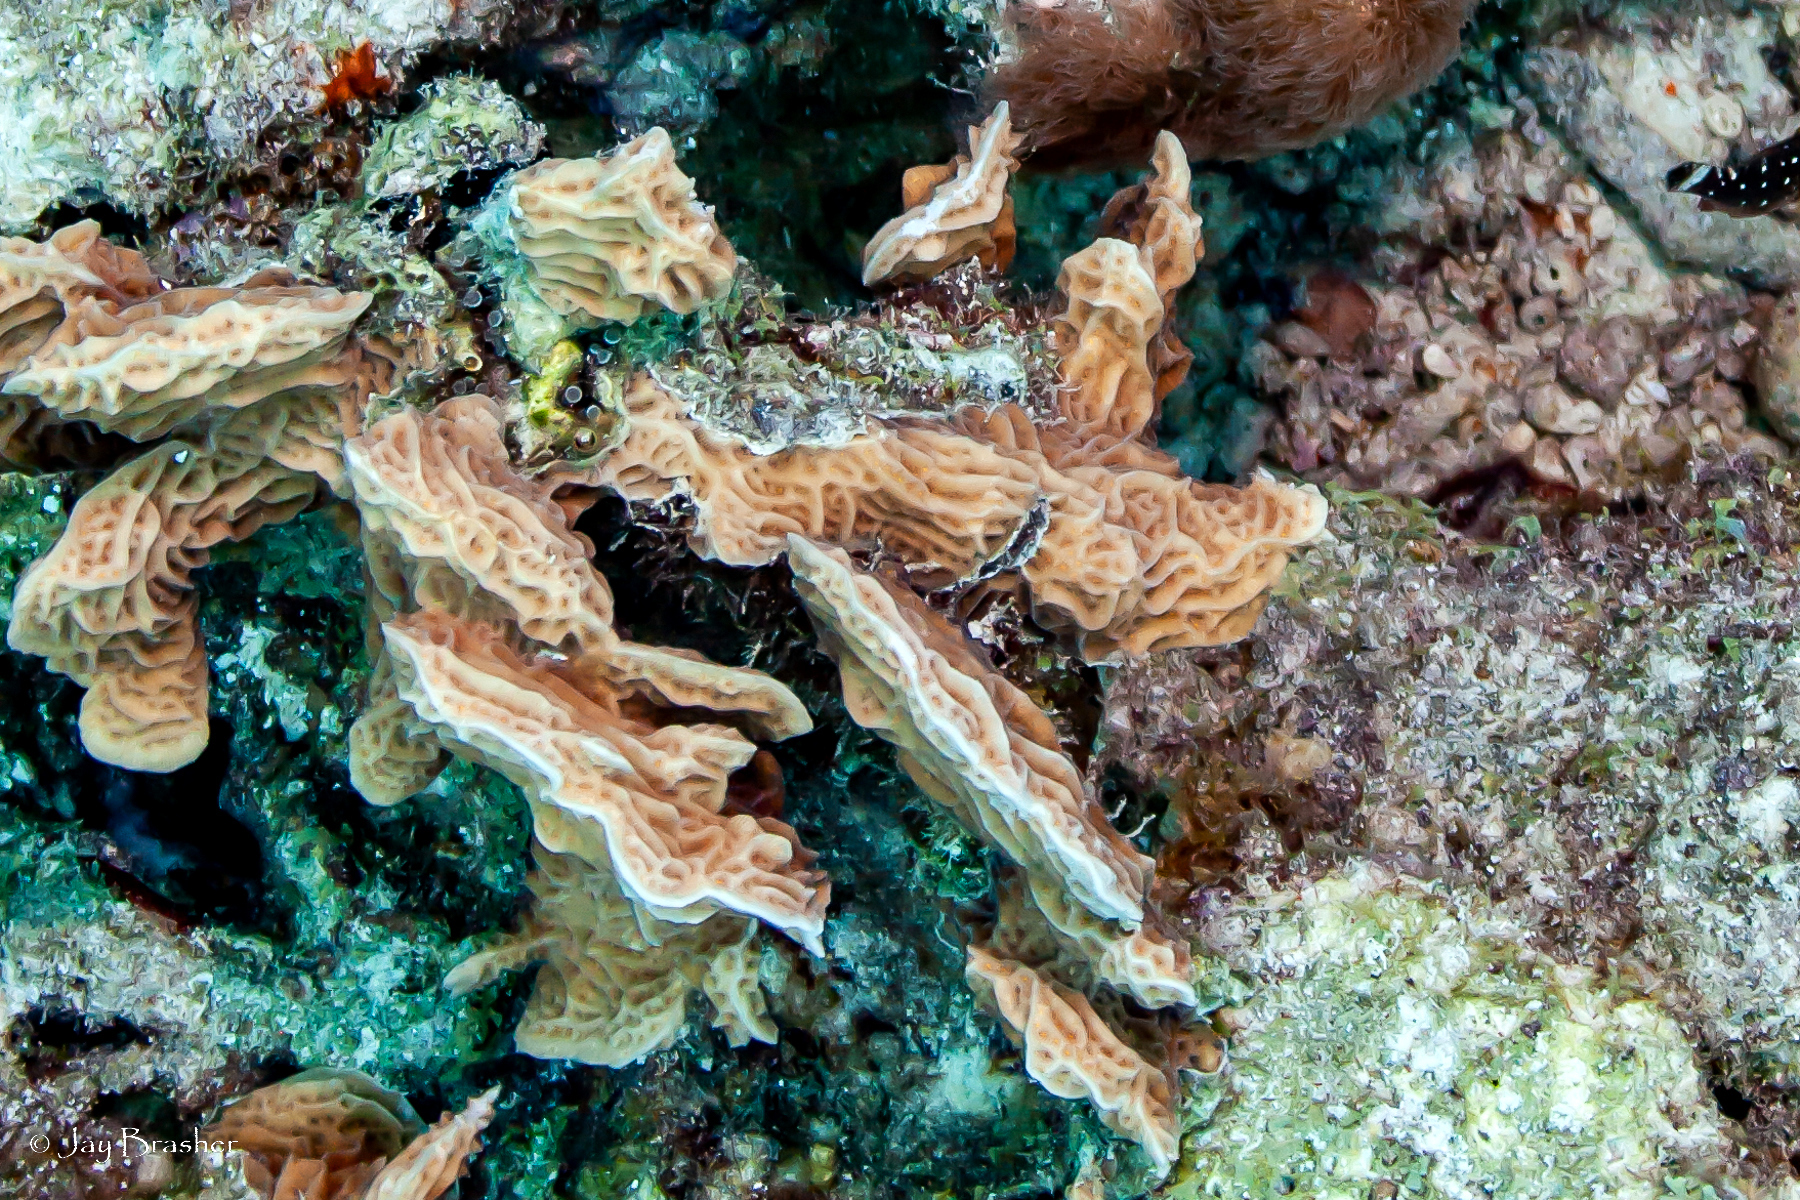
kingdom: Animalia
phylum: Cnidaria
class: Anthozoa
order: Scleractinia
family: Agariciidae
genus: Agaricia
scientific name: Agaricia agaricites
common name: Lettuce coral
